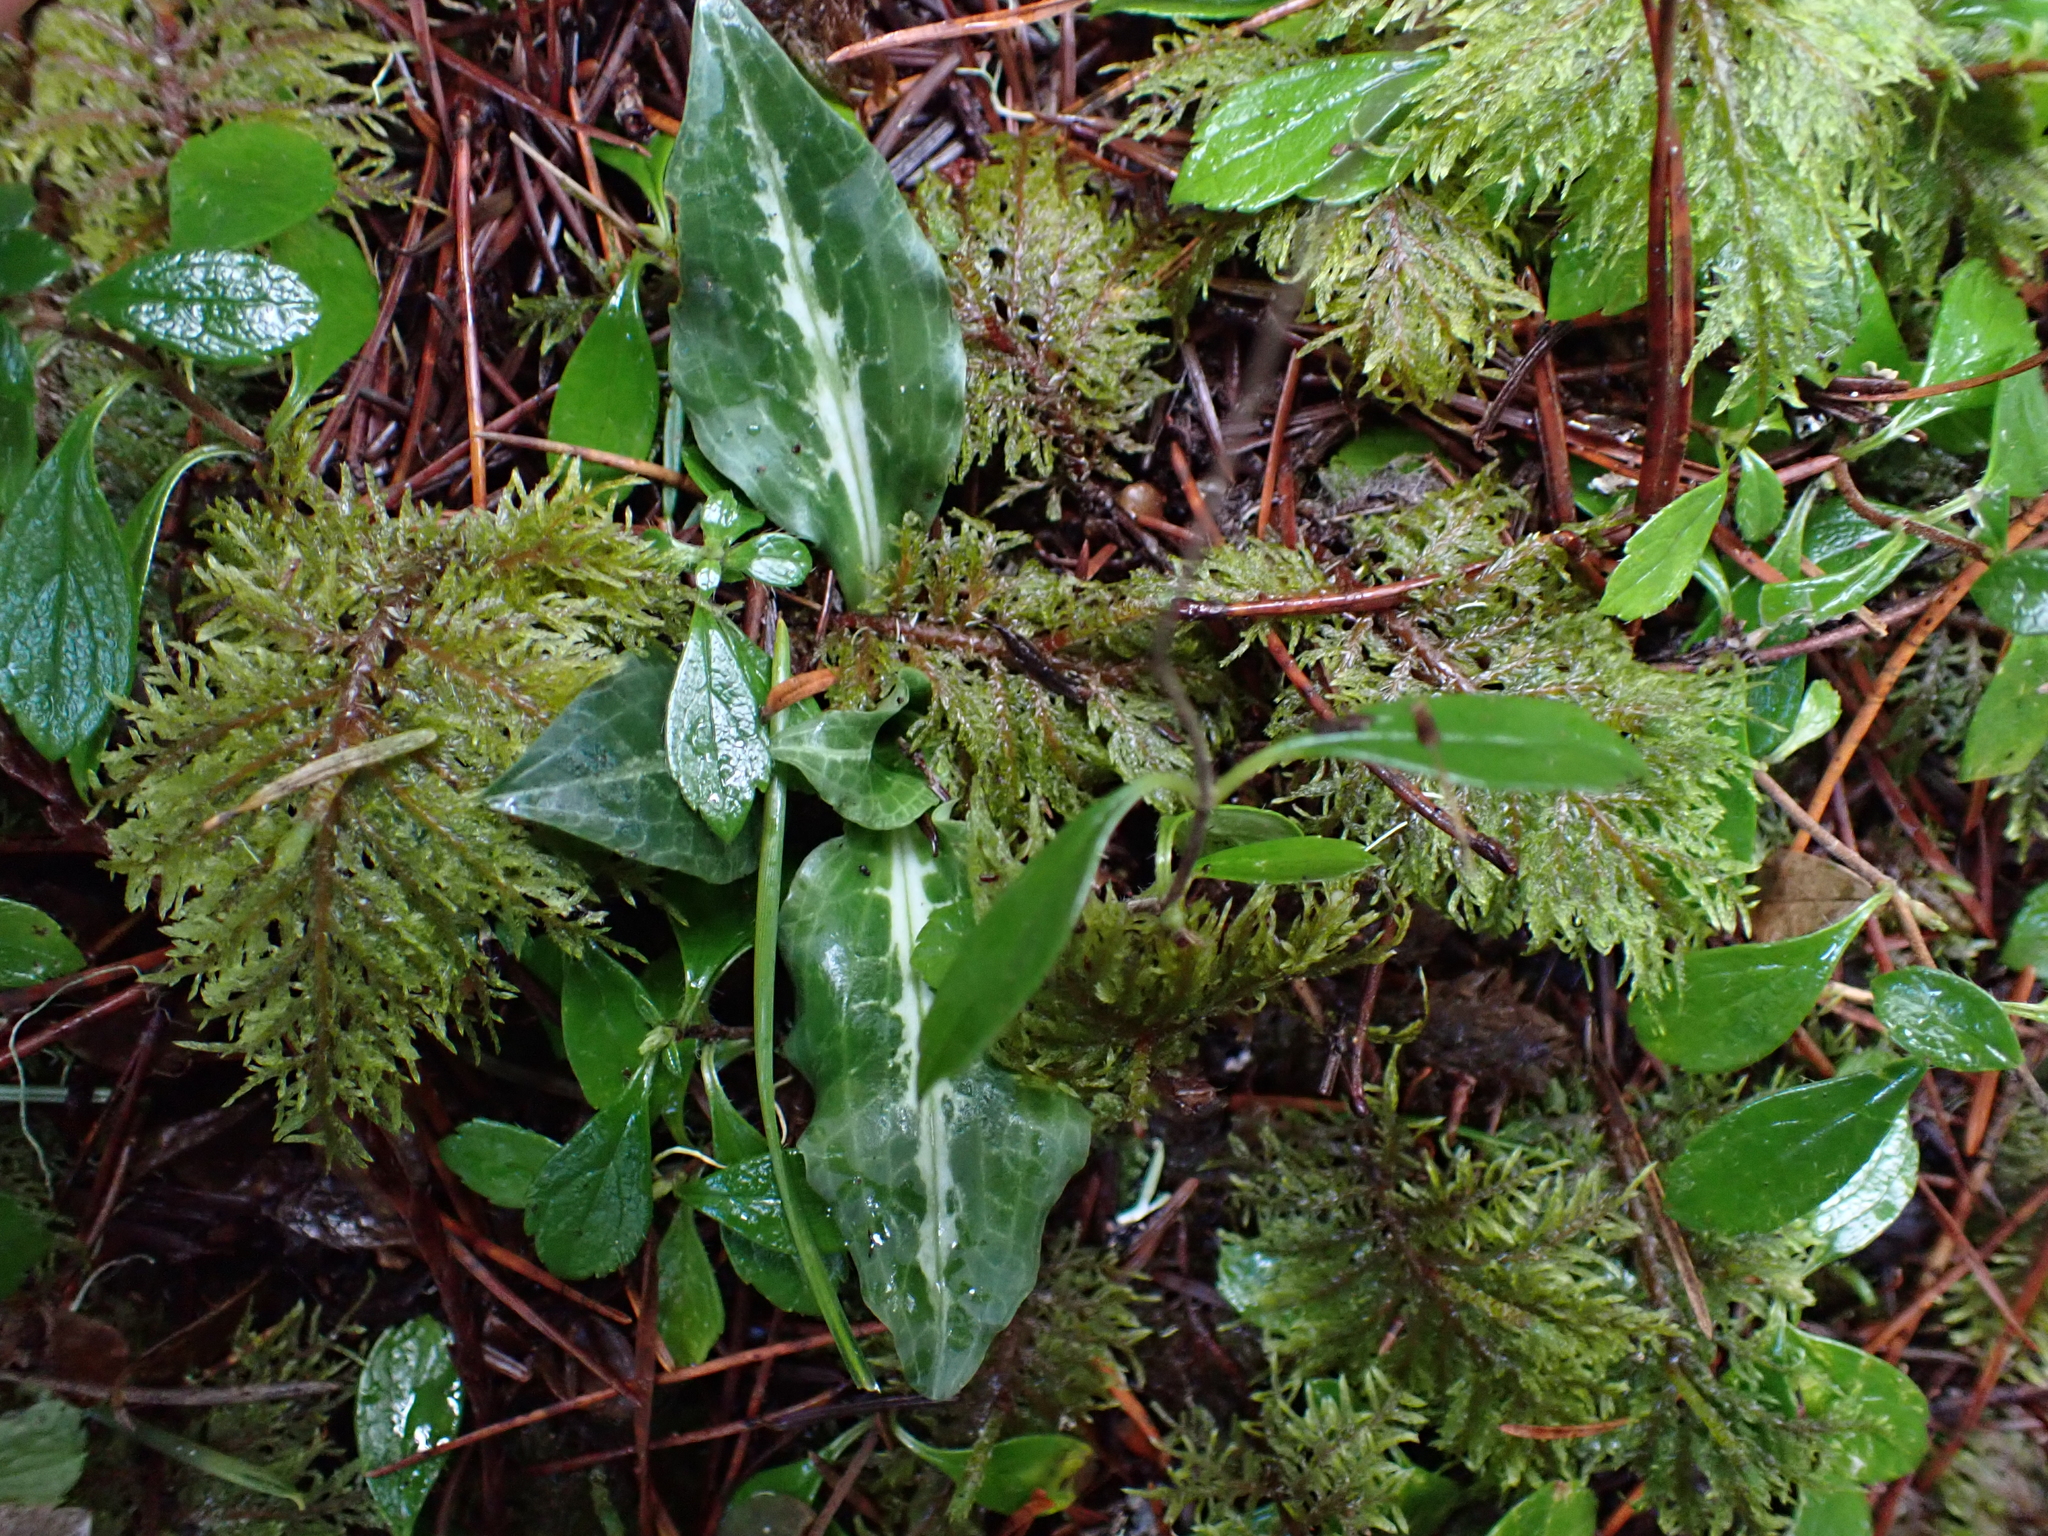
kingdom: Plantae
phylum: Tracheophyta
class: Liliopsida
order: Asparagales
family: Orchidaceae
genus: Goodyera
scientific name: Goodyera oblongifolia
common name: Giant rattlesnake-plantain
